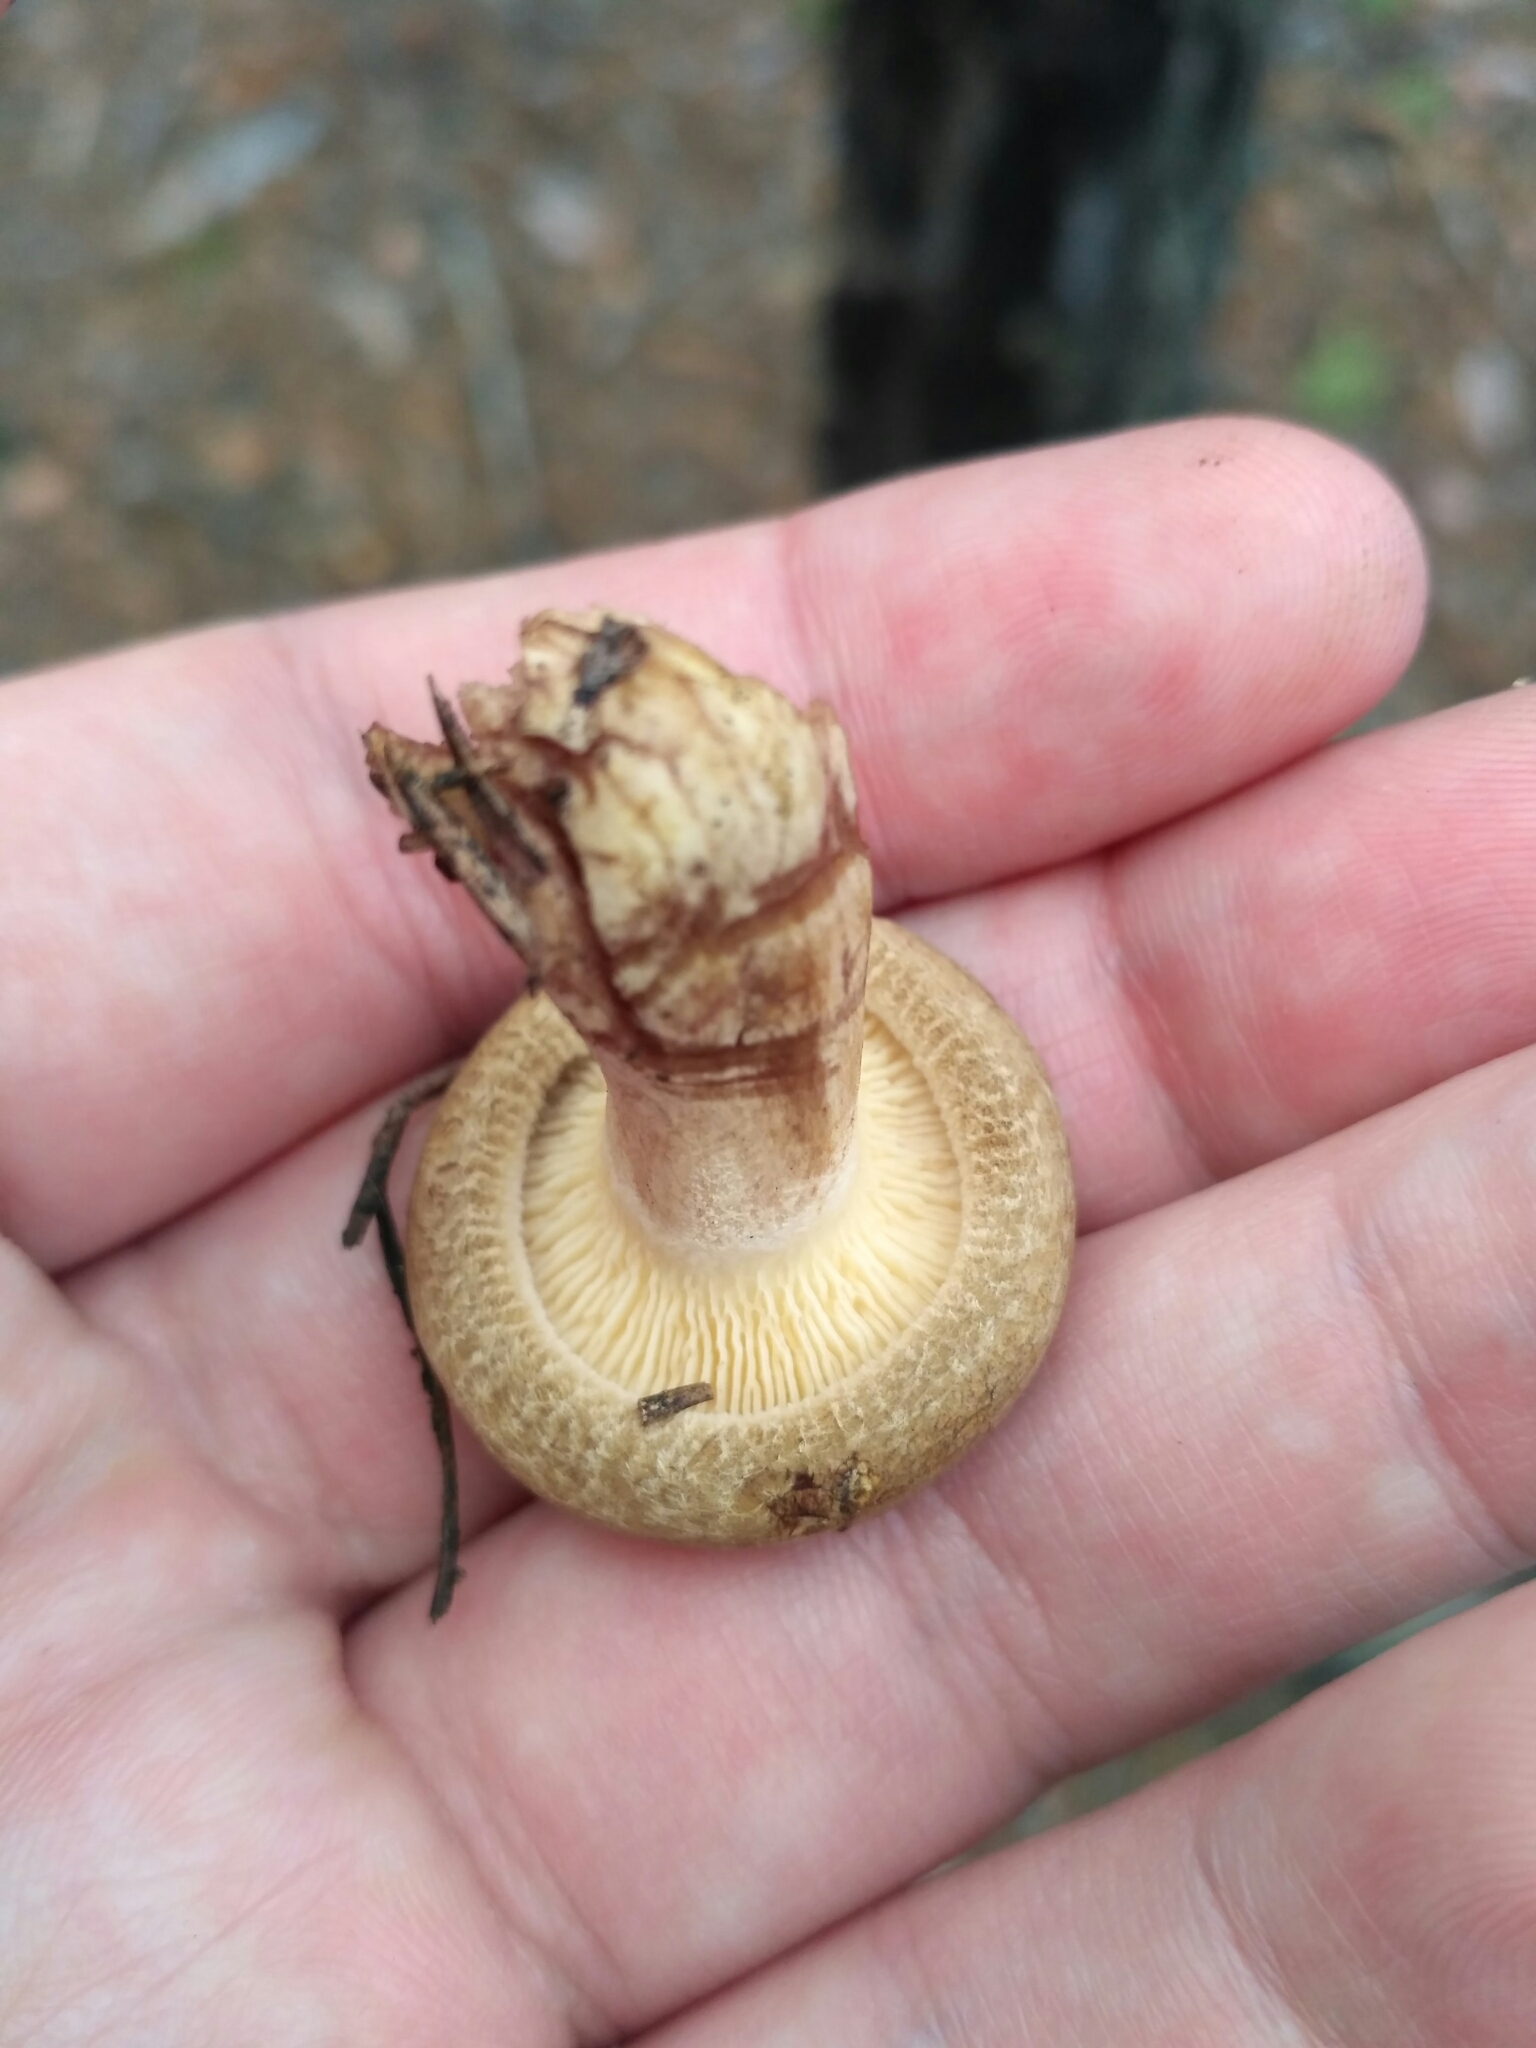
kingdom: Fungi
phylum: Basidiomycota
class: Agaricomycetes
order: Boletales
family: Paxillaceae
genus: Paxillus
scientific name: Paxillus involutus
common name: Brown roll rim
